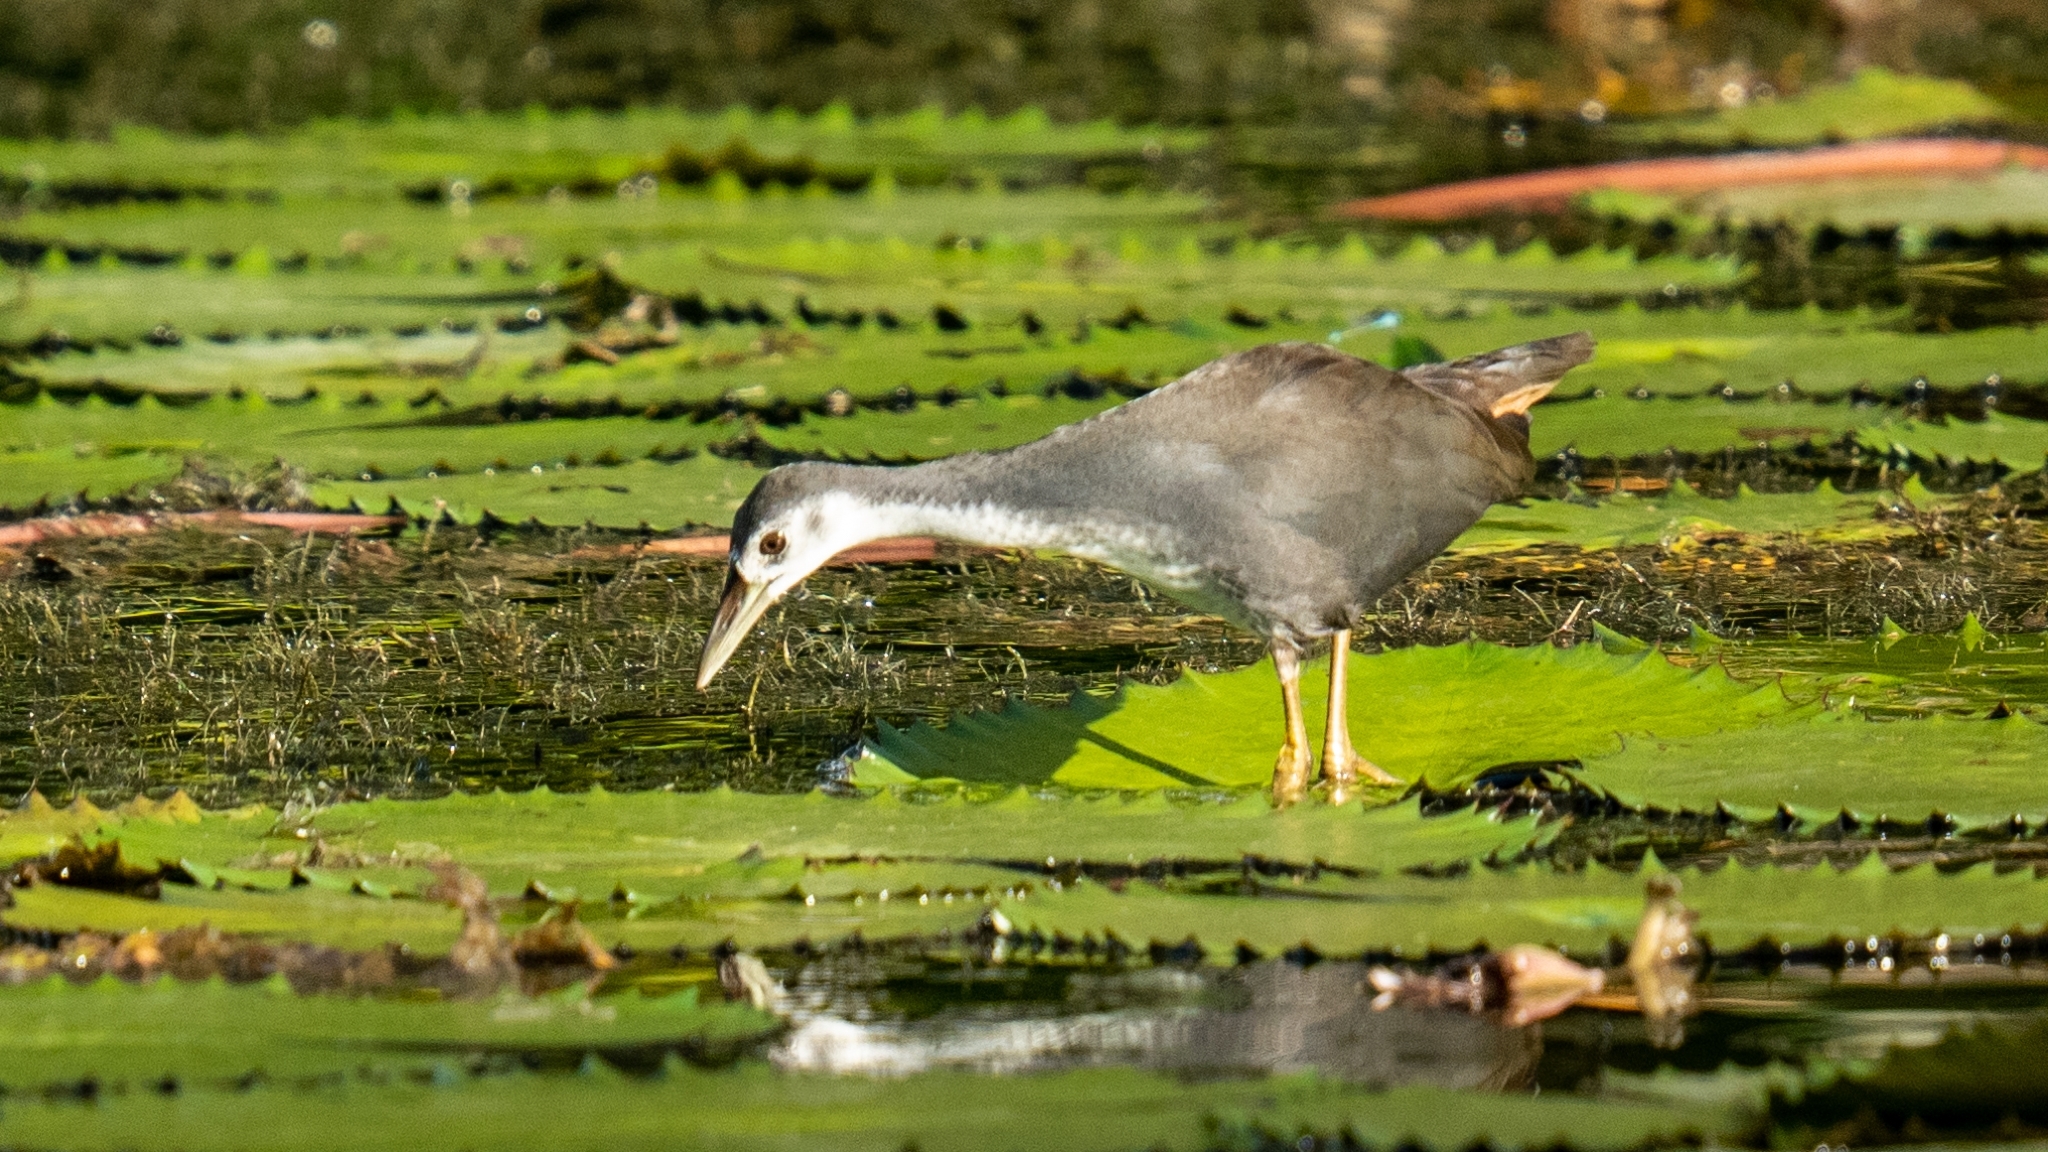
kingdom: Animalia
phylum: Chordata
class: Aves
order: Gruiformes
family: Rallidae
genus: Amaurornis
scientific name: Amaurornis phoenicurus
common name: White-breasted waterhen
